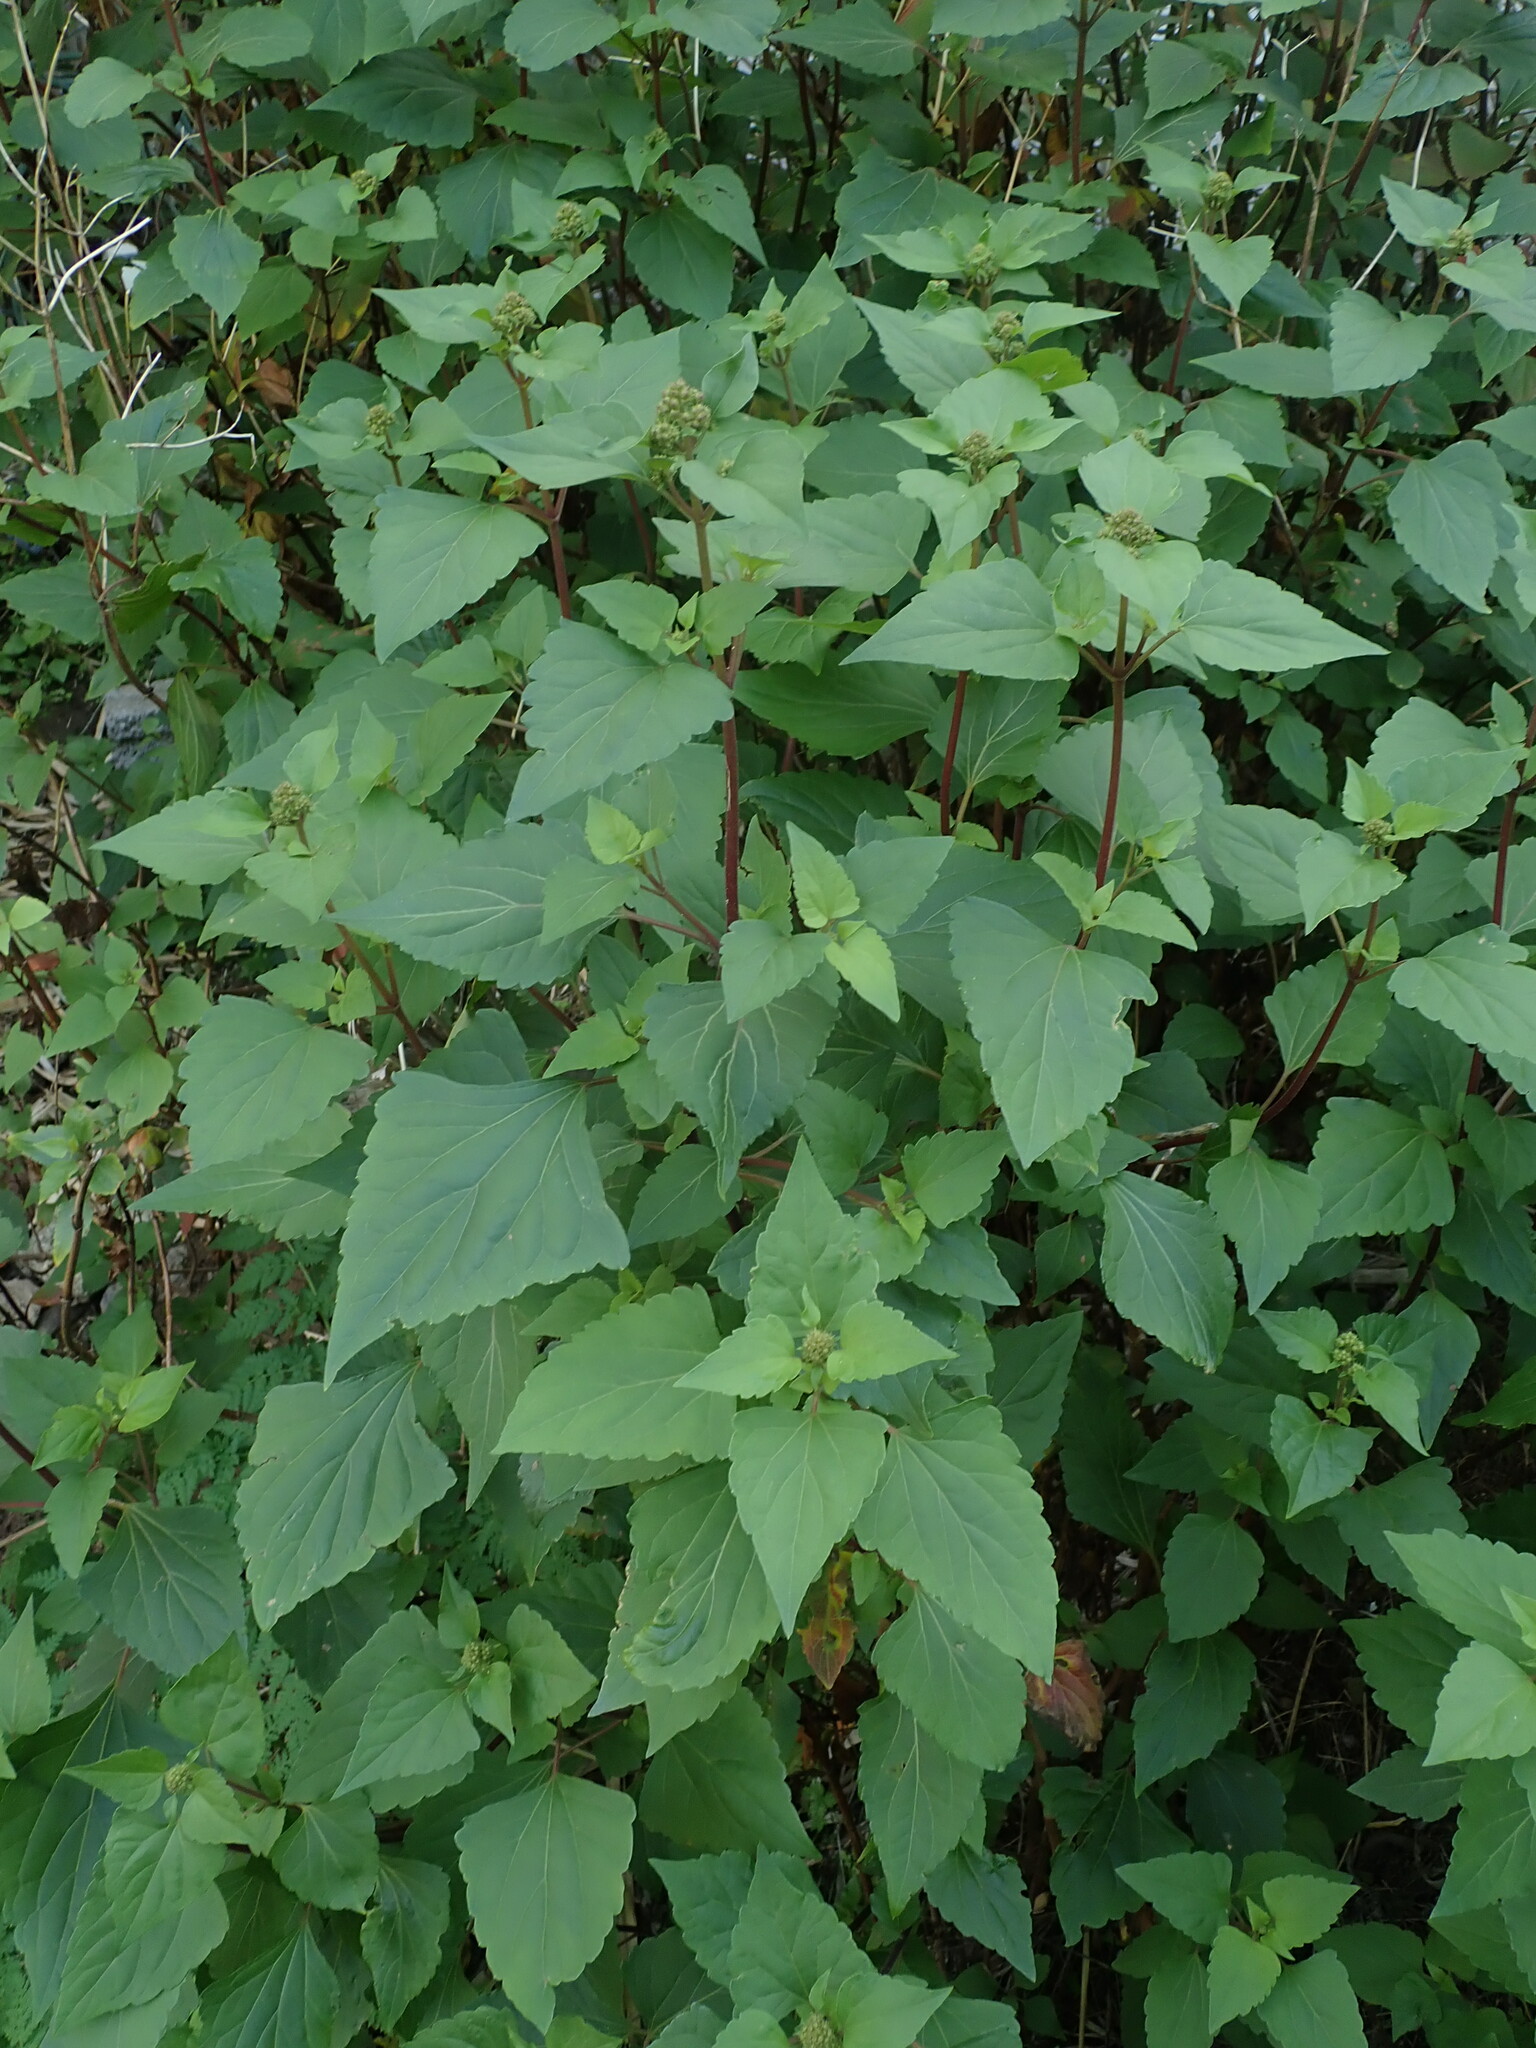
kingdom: Plantae
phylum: Tracheophyta
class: Magnoliopsida
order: Asterales
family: Asteraceae
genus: Ageratina
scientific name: Ageratina adenophora
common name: Sticky snakeroot
